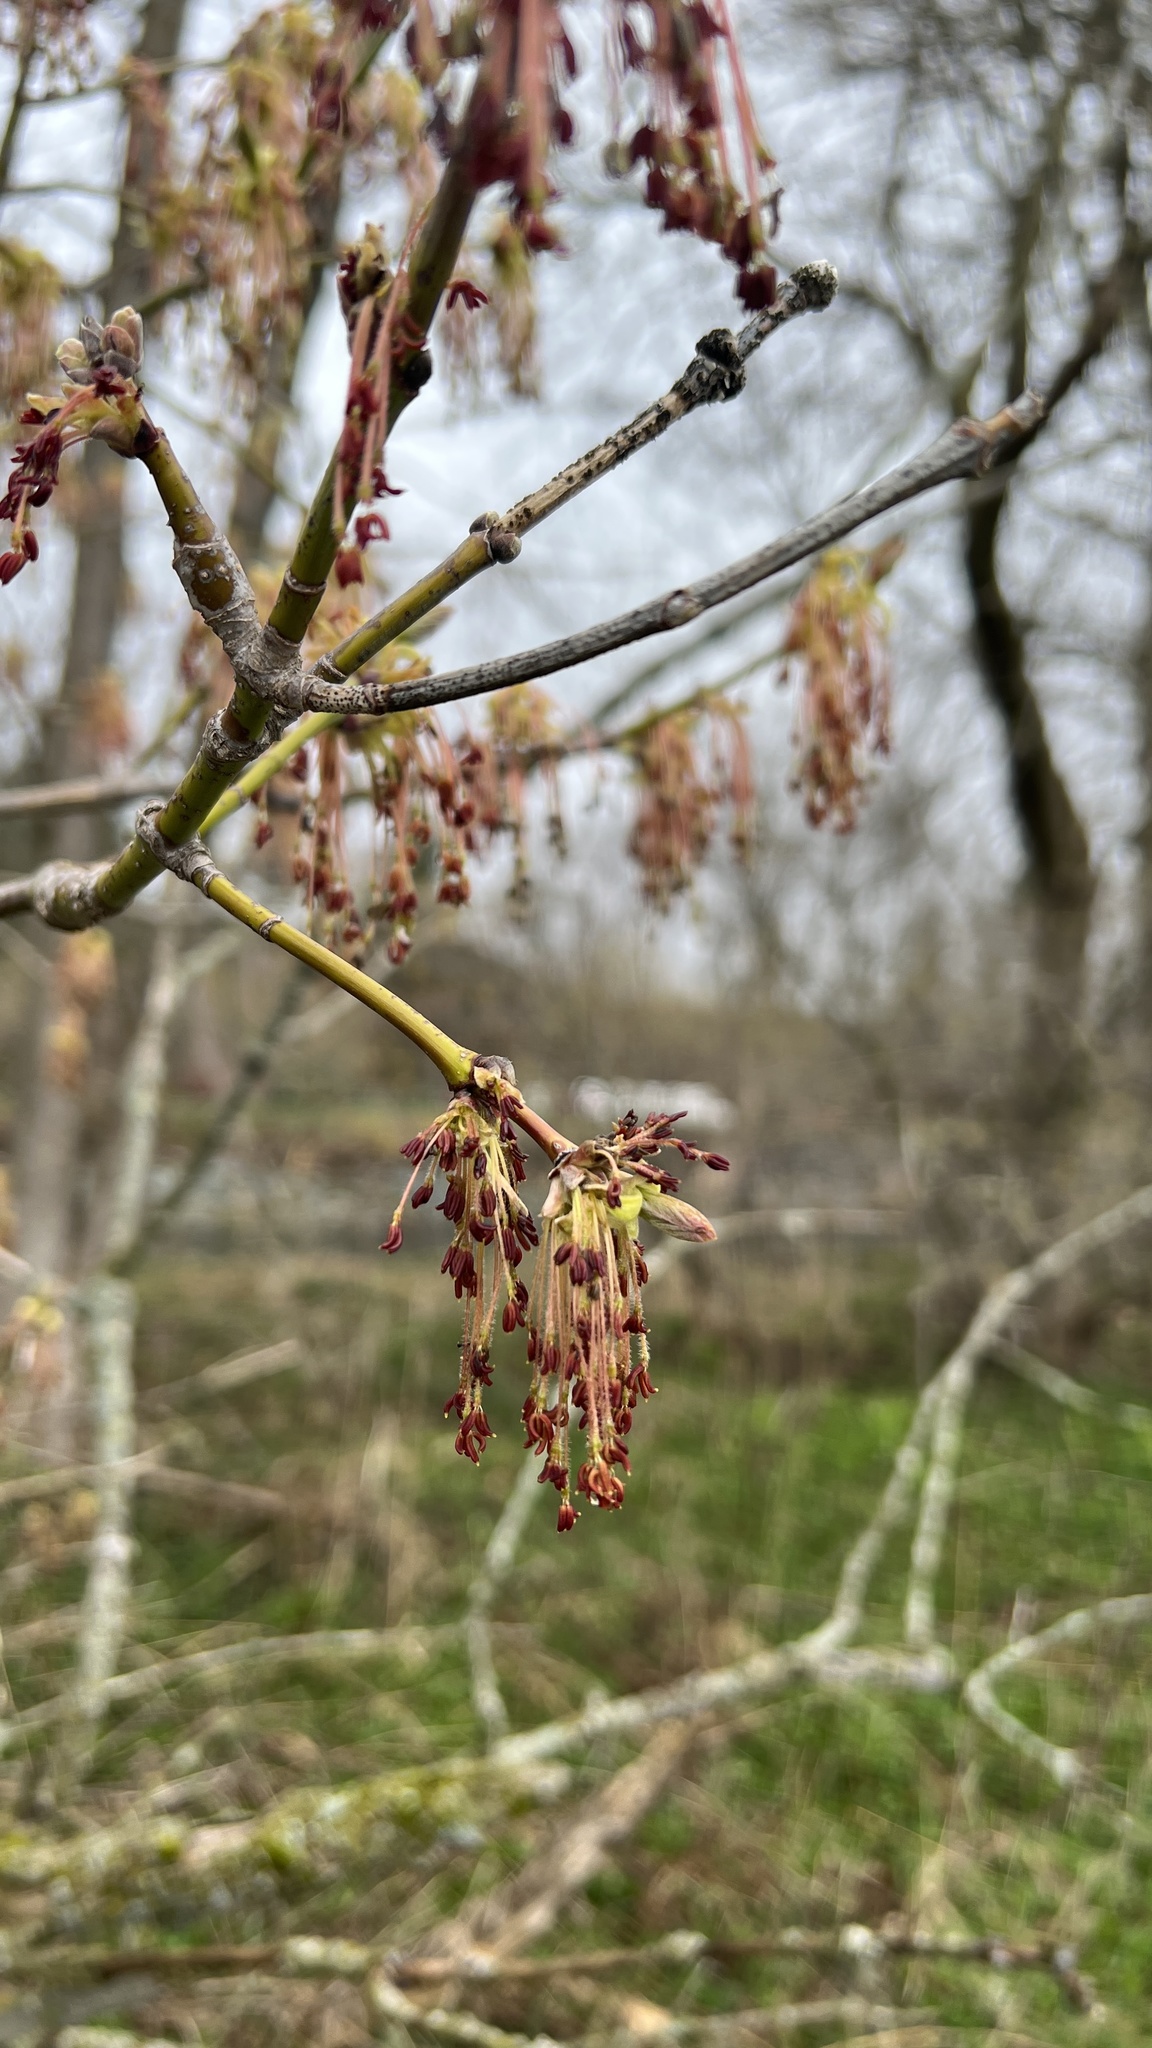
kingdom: Plantae
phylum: Tracheophyta
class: Magnoliopsida
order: Sapindales
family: Sapindaceae
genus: Acer
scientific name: Acer negundo
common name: Ashleaf maple
